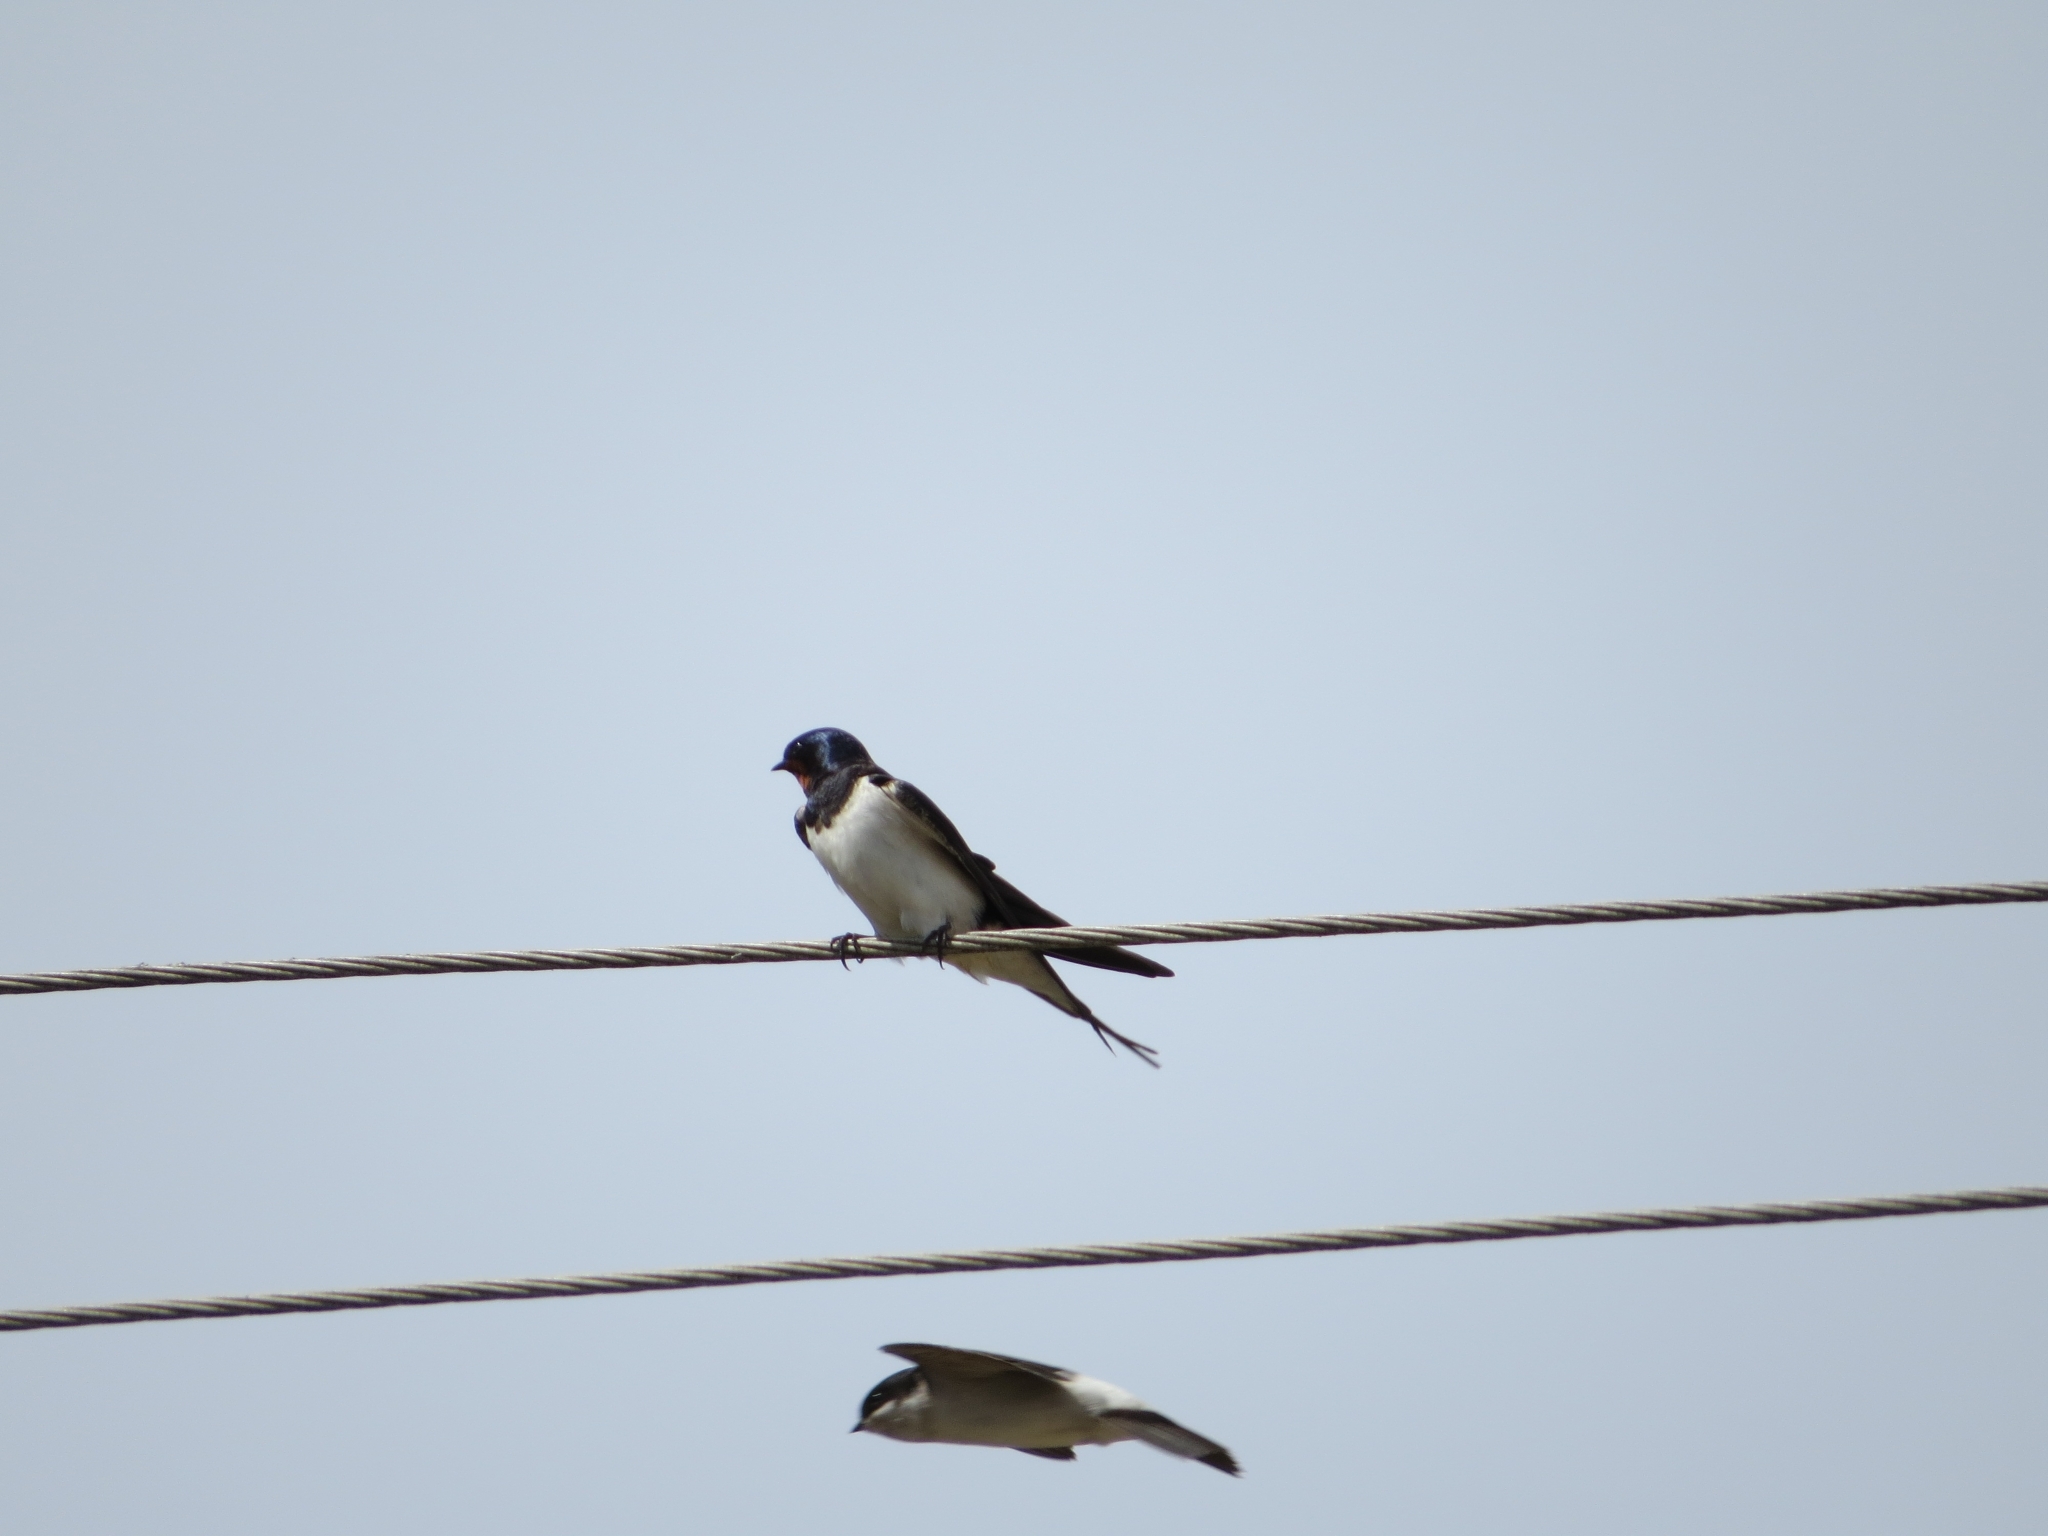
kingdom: Animalia
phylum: Chordata
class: Aves
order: Passeriformes
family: Hirundinidae
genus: Hirundo
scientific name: Hirundo rustica
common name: Barn swallow
